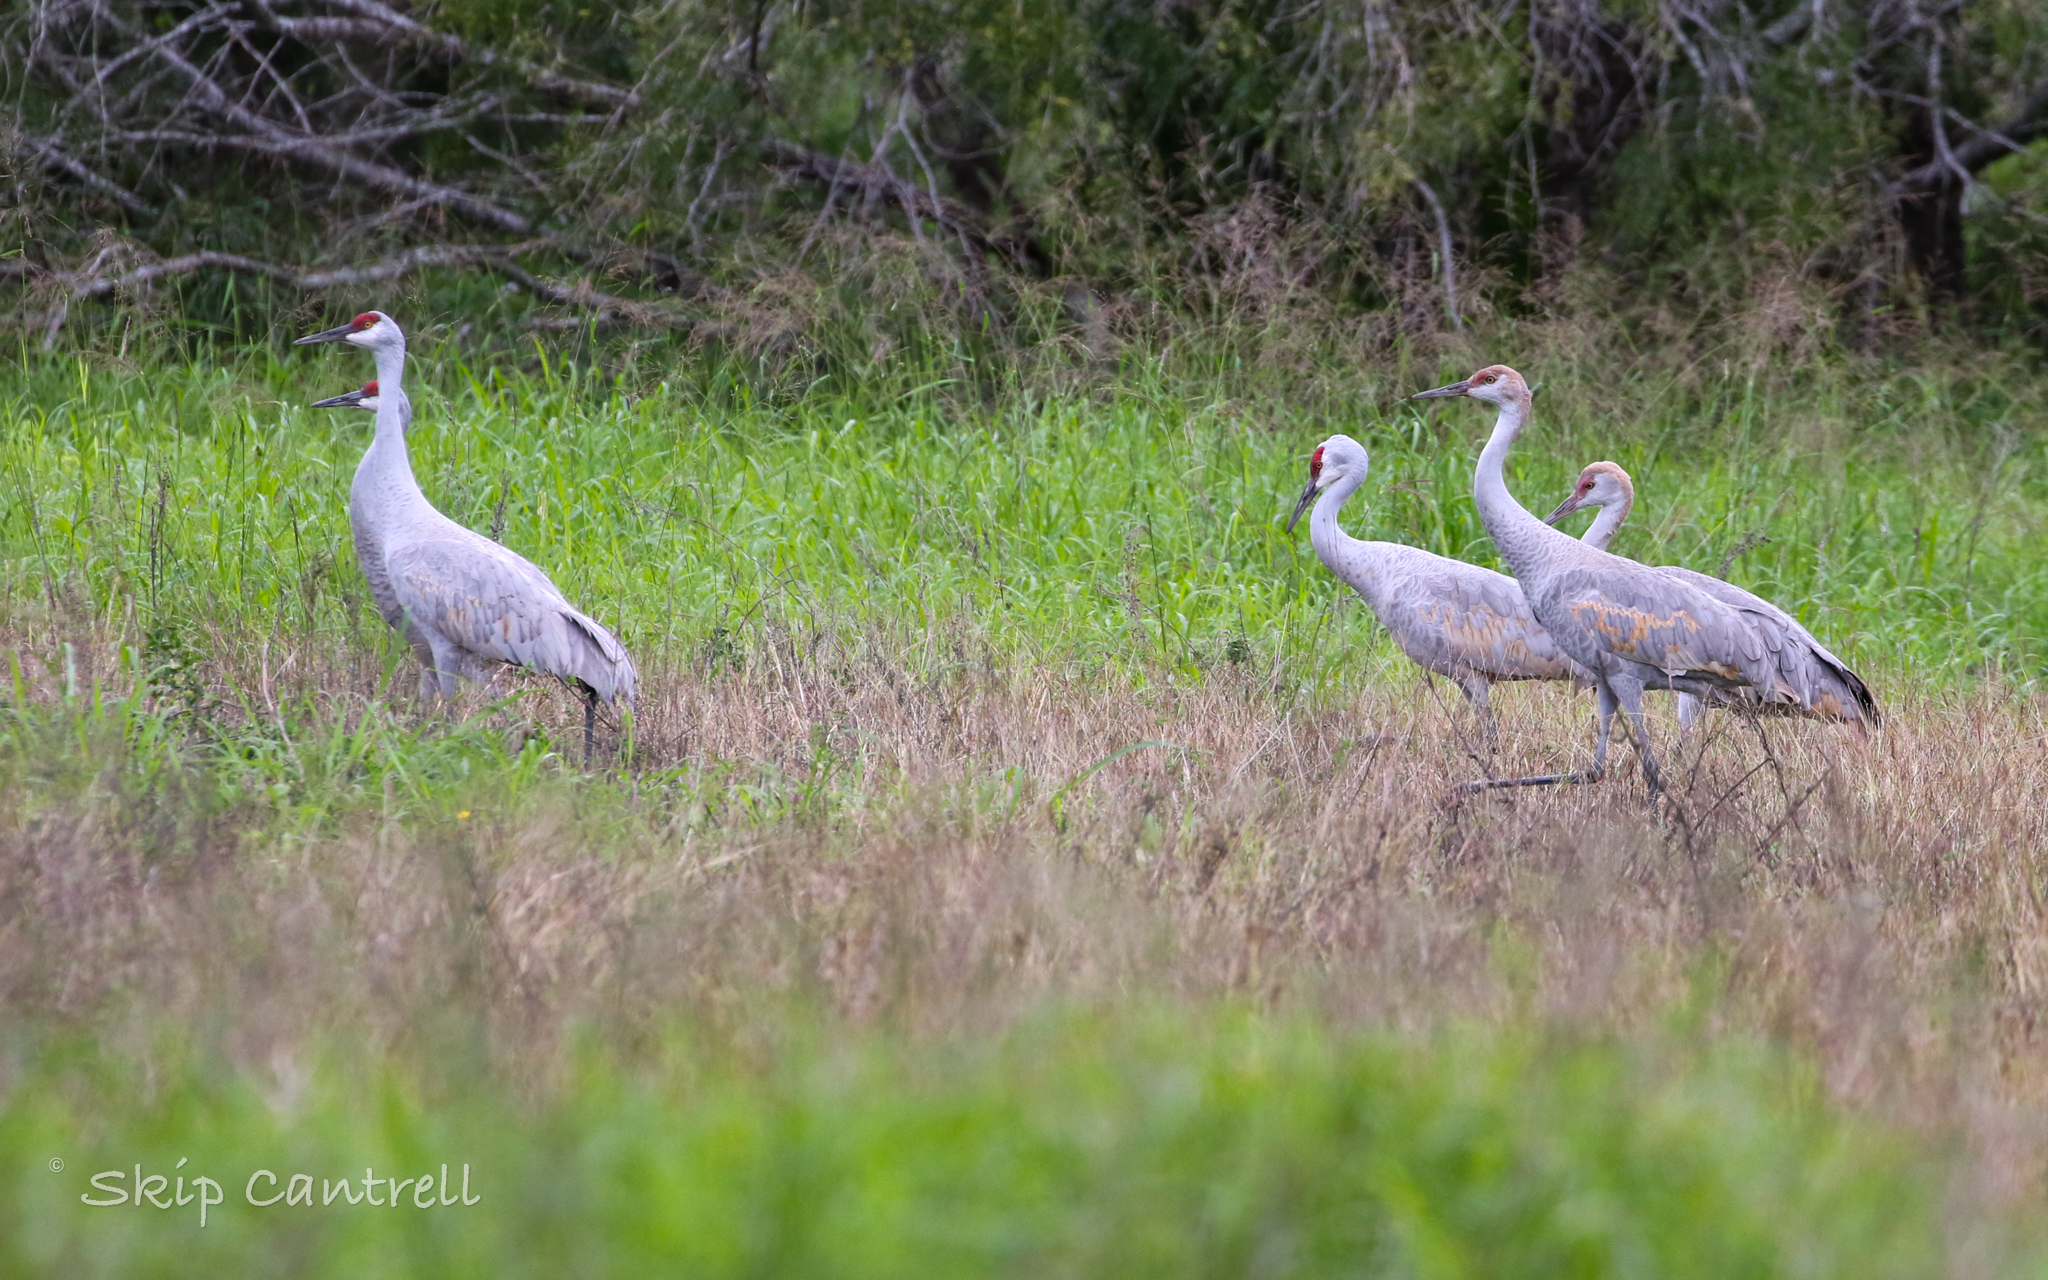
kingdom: Animalia
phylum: Chordata
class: Aves
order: Gruiformes
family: Gruidae
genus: Grus
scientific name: Grus canadensis
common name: Sandhill crane
